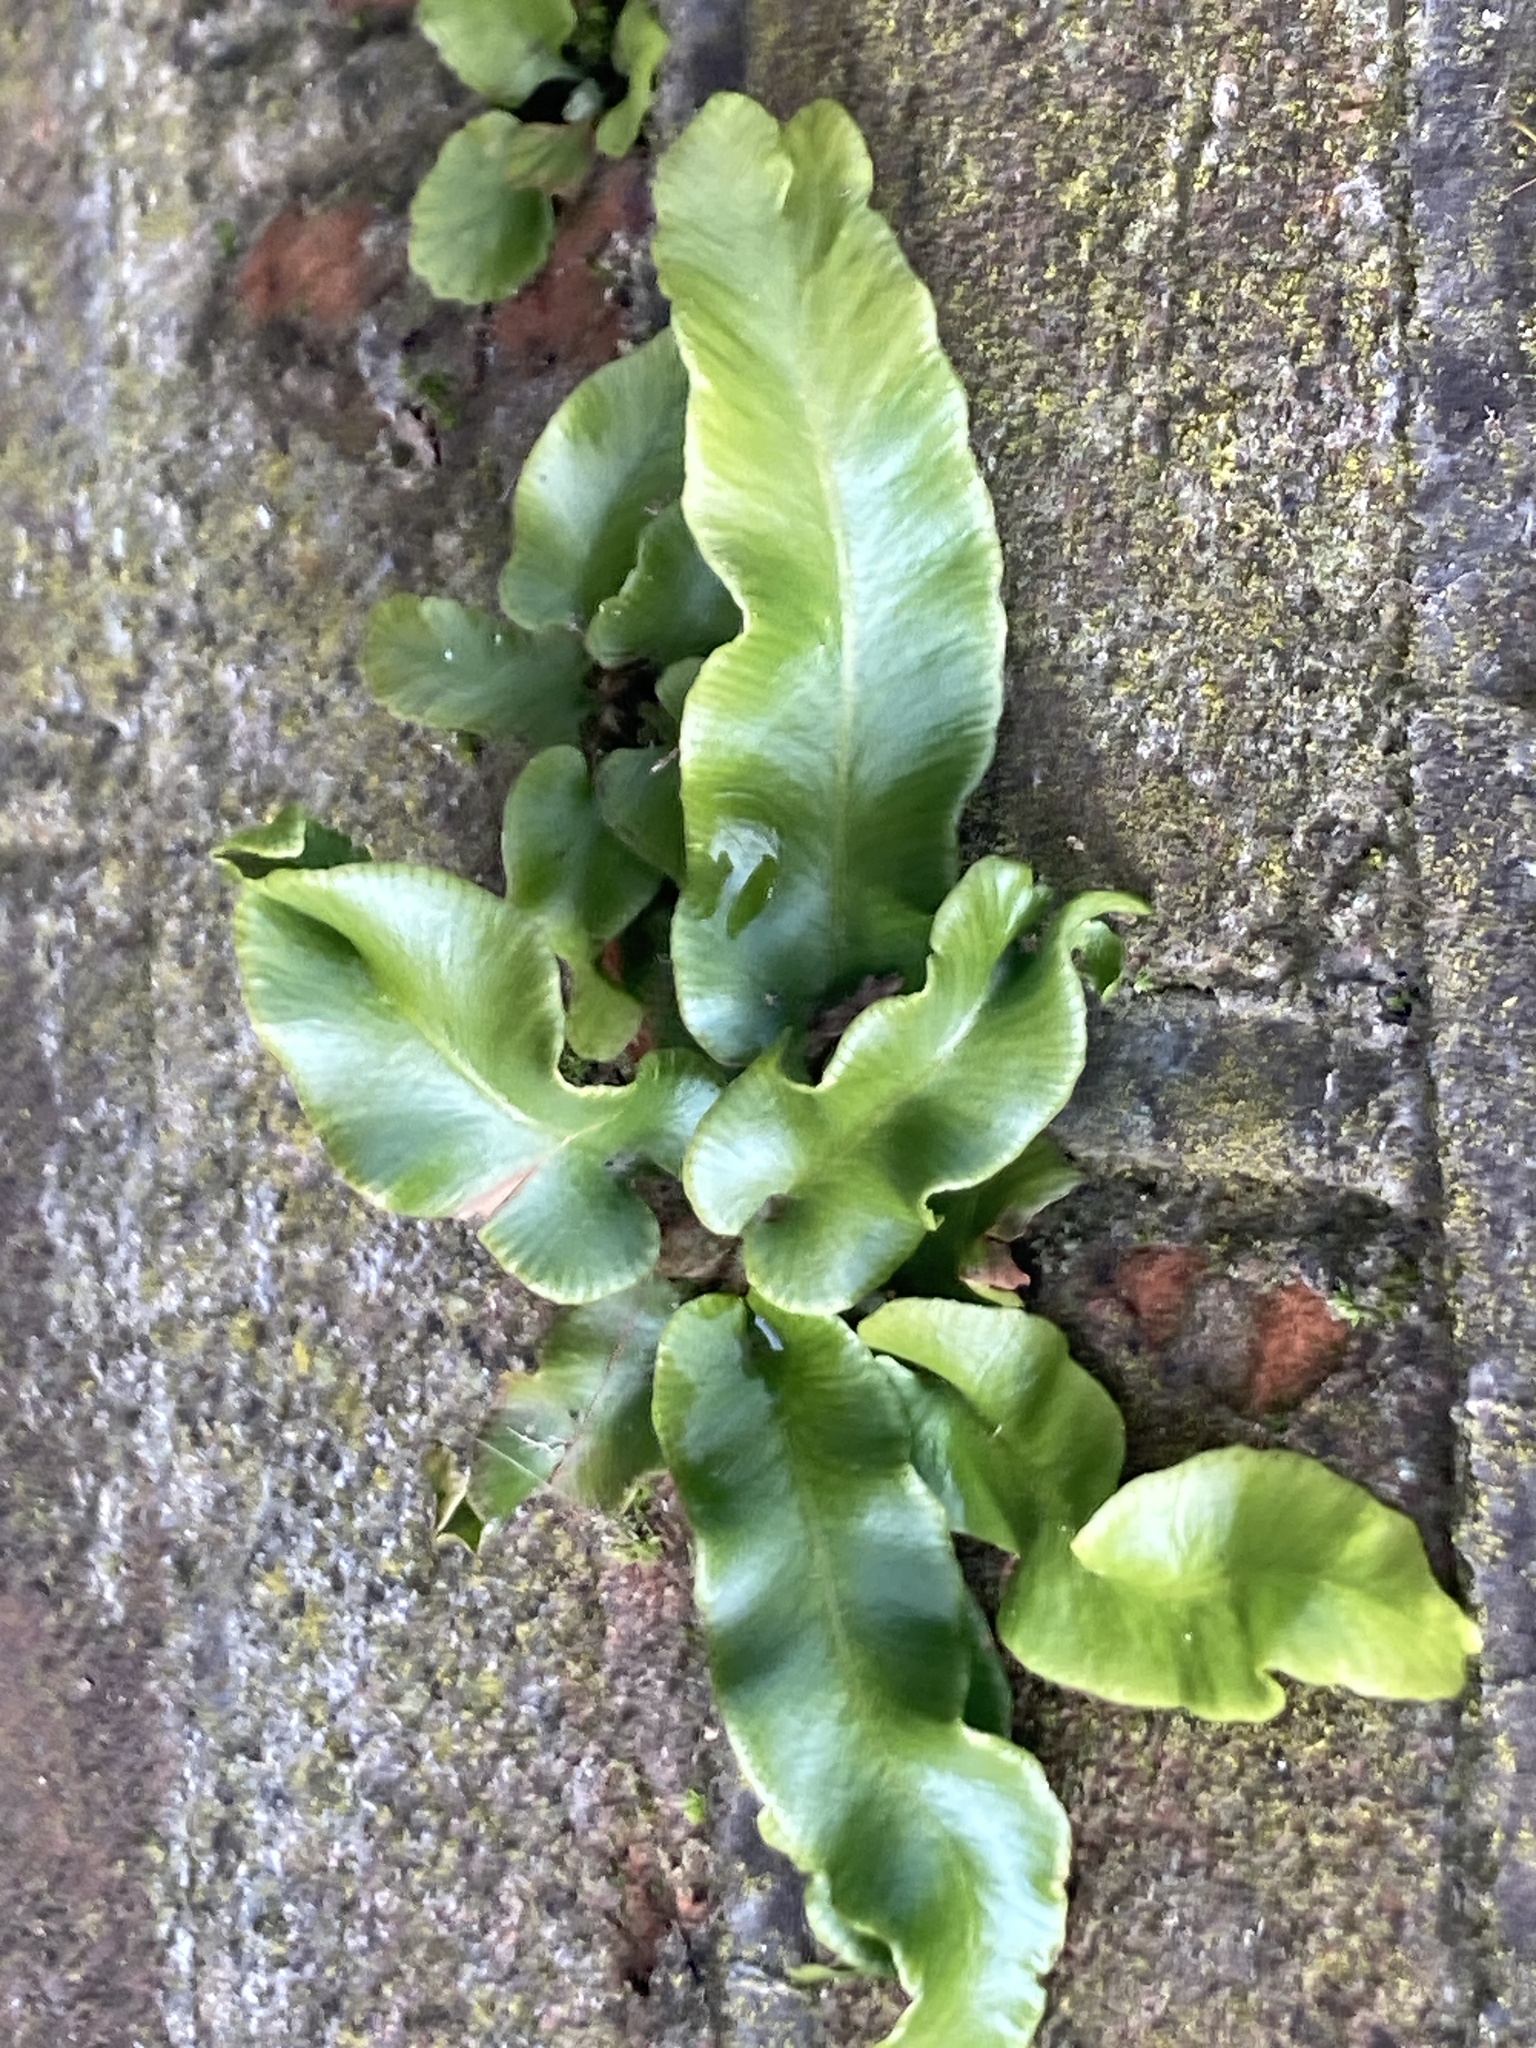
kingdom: Plantae
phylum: Tracheophyta
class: Polypodiopsida
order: Polypodiales
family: Aspleniaceae
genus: Asplenium
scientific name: Asplenium scolopendrium
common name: Hart's-tongue fern
